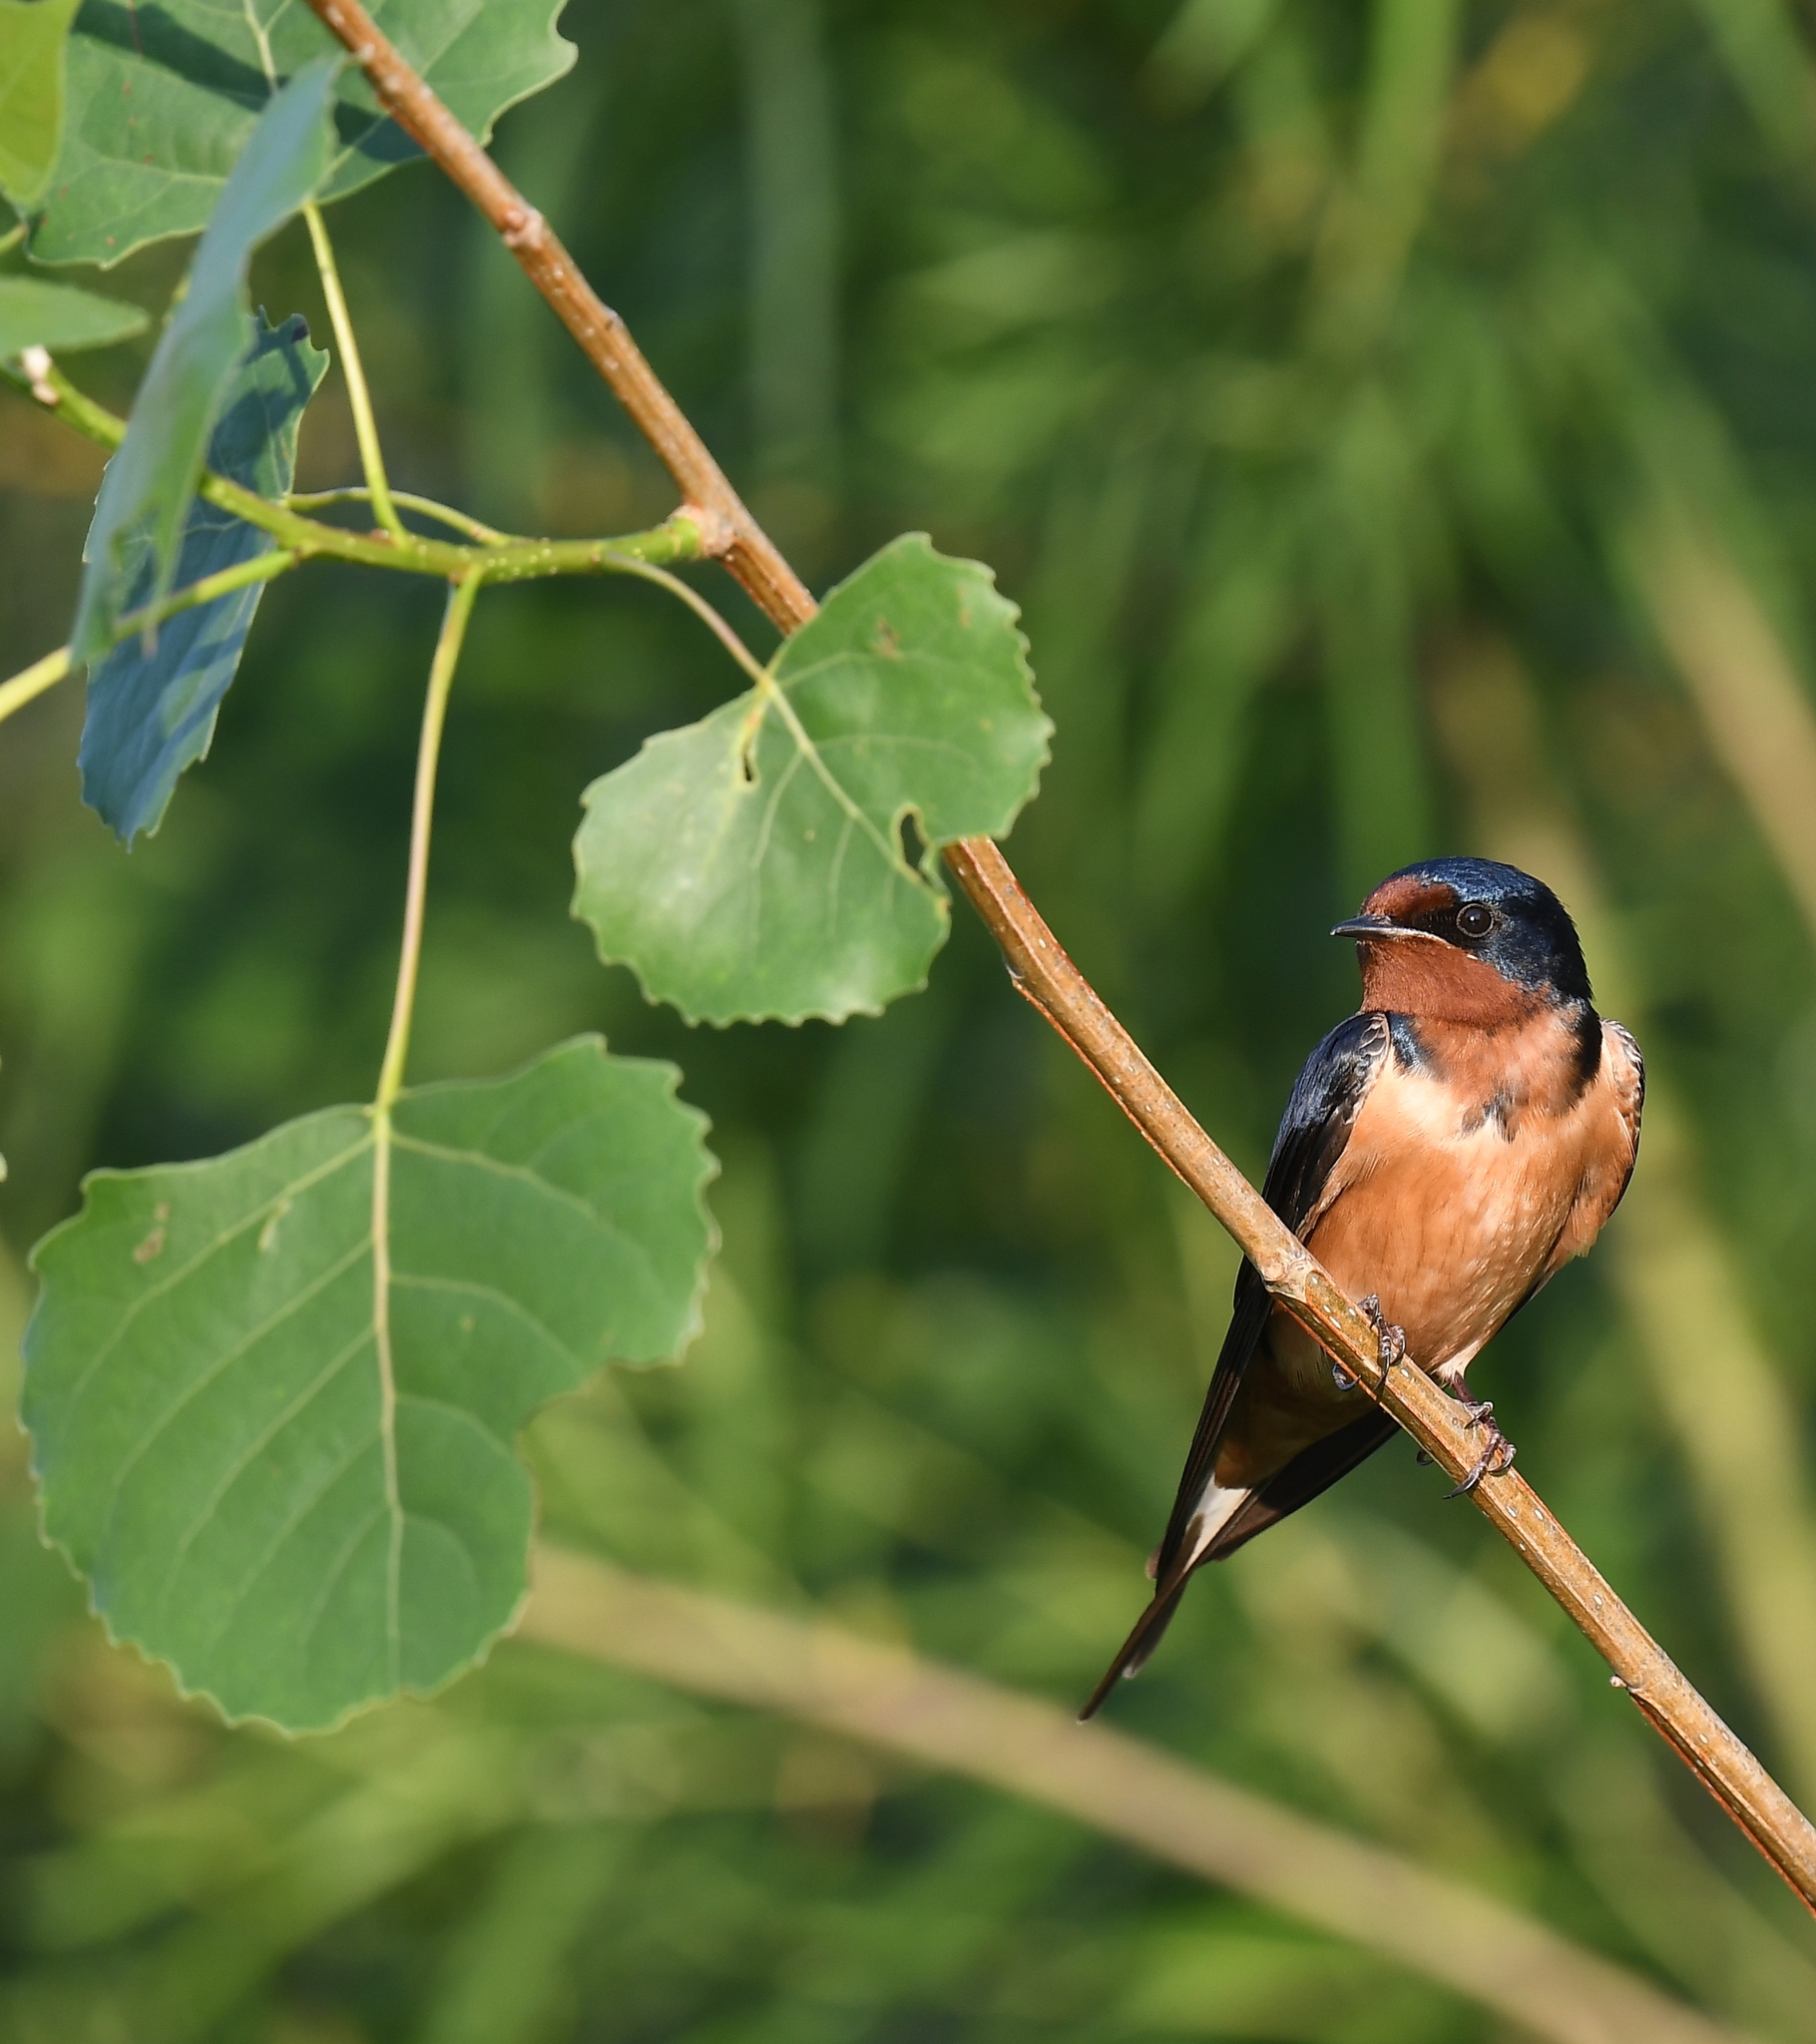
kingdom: Animalia
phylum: Chordata
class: Aves
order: Passeriformes
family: Hirundinidae
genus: Hirundo
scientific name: Hirundo rustica
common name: Barn swallow
